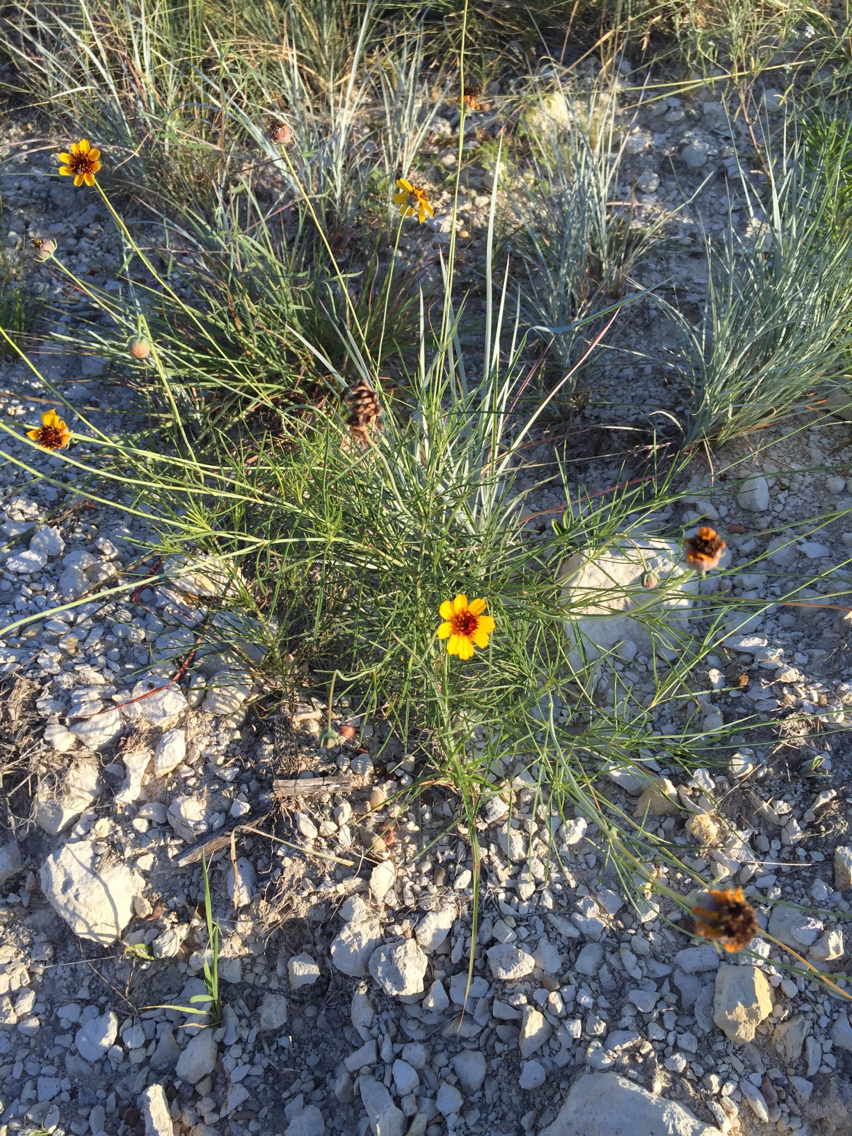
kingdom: Plantae
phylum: Tracheophyta
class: Magnoliopsida
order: Asterales
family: Asteraceae
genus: Thelesperma
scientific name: Thelesperma filifolium
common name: Stiff greenthread
